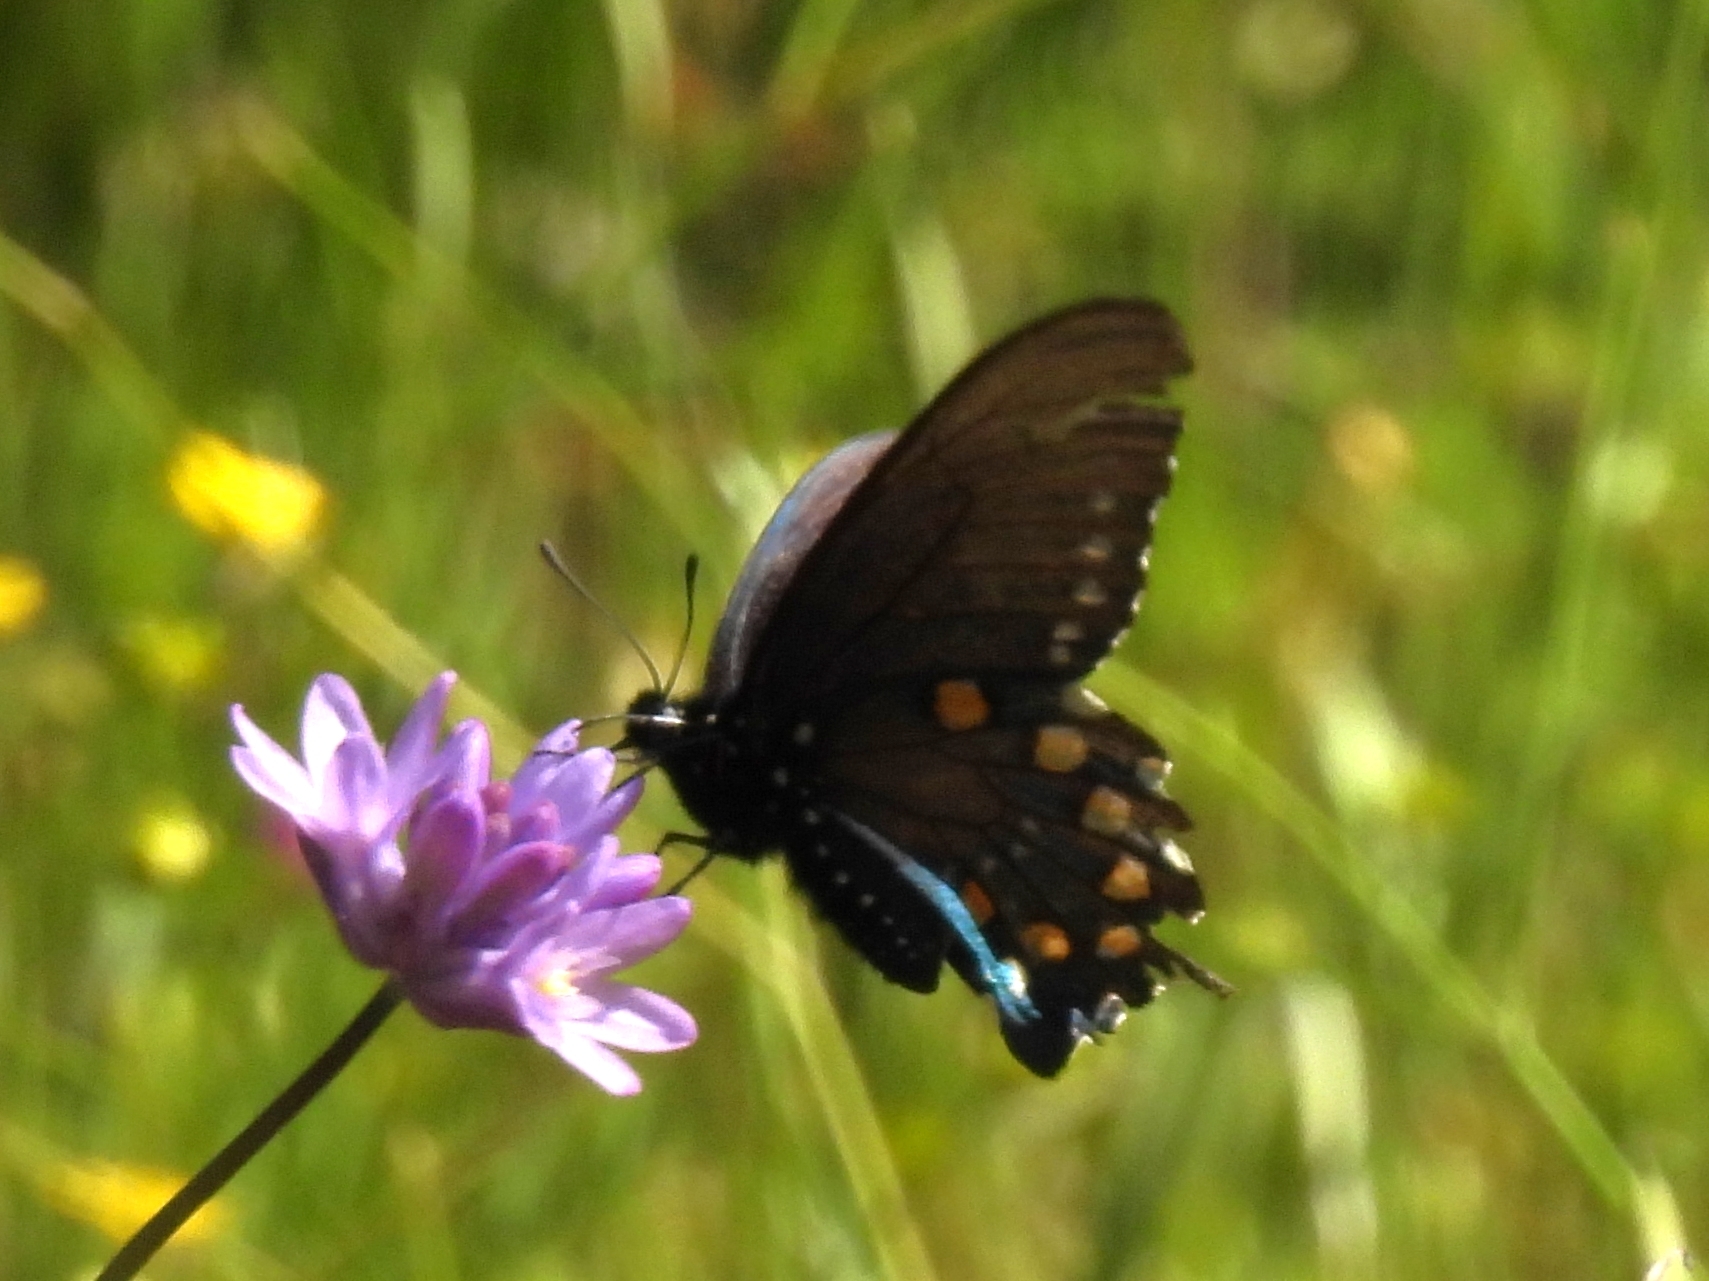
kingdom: Animalia
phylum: Arthropoda
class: Insecta
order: Lepidoptera
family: Papilionidae
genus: Battus
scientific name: Battus philenor
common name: Pipevine swallowtail
